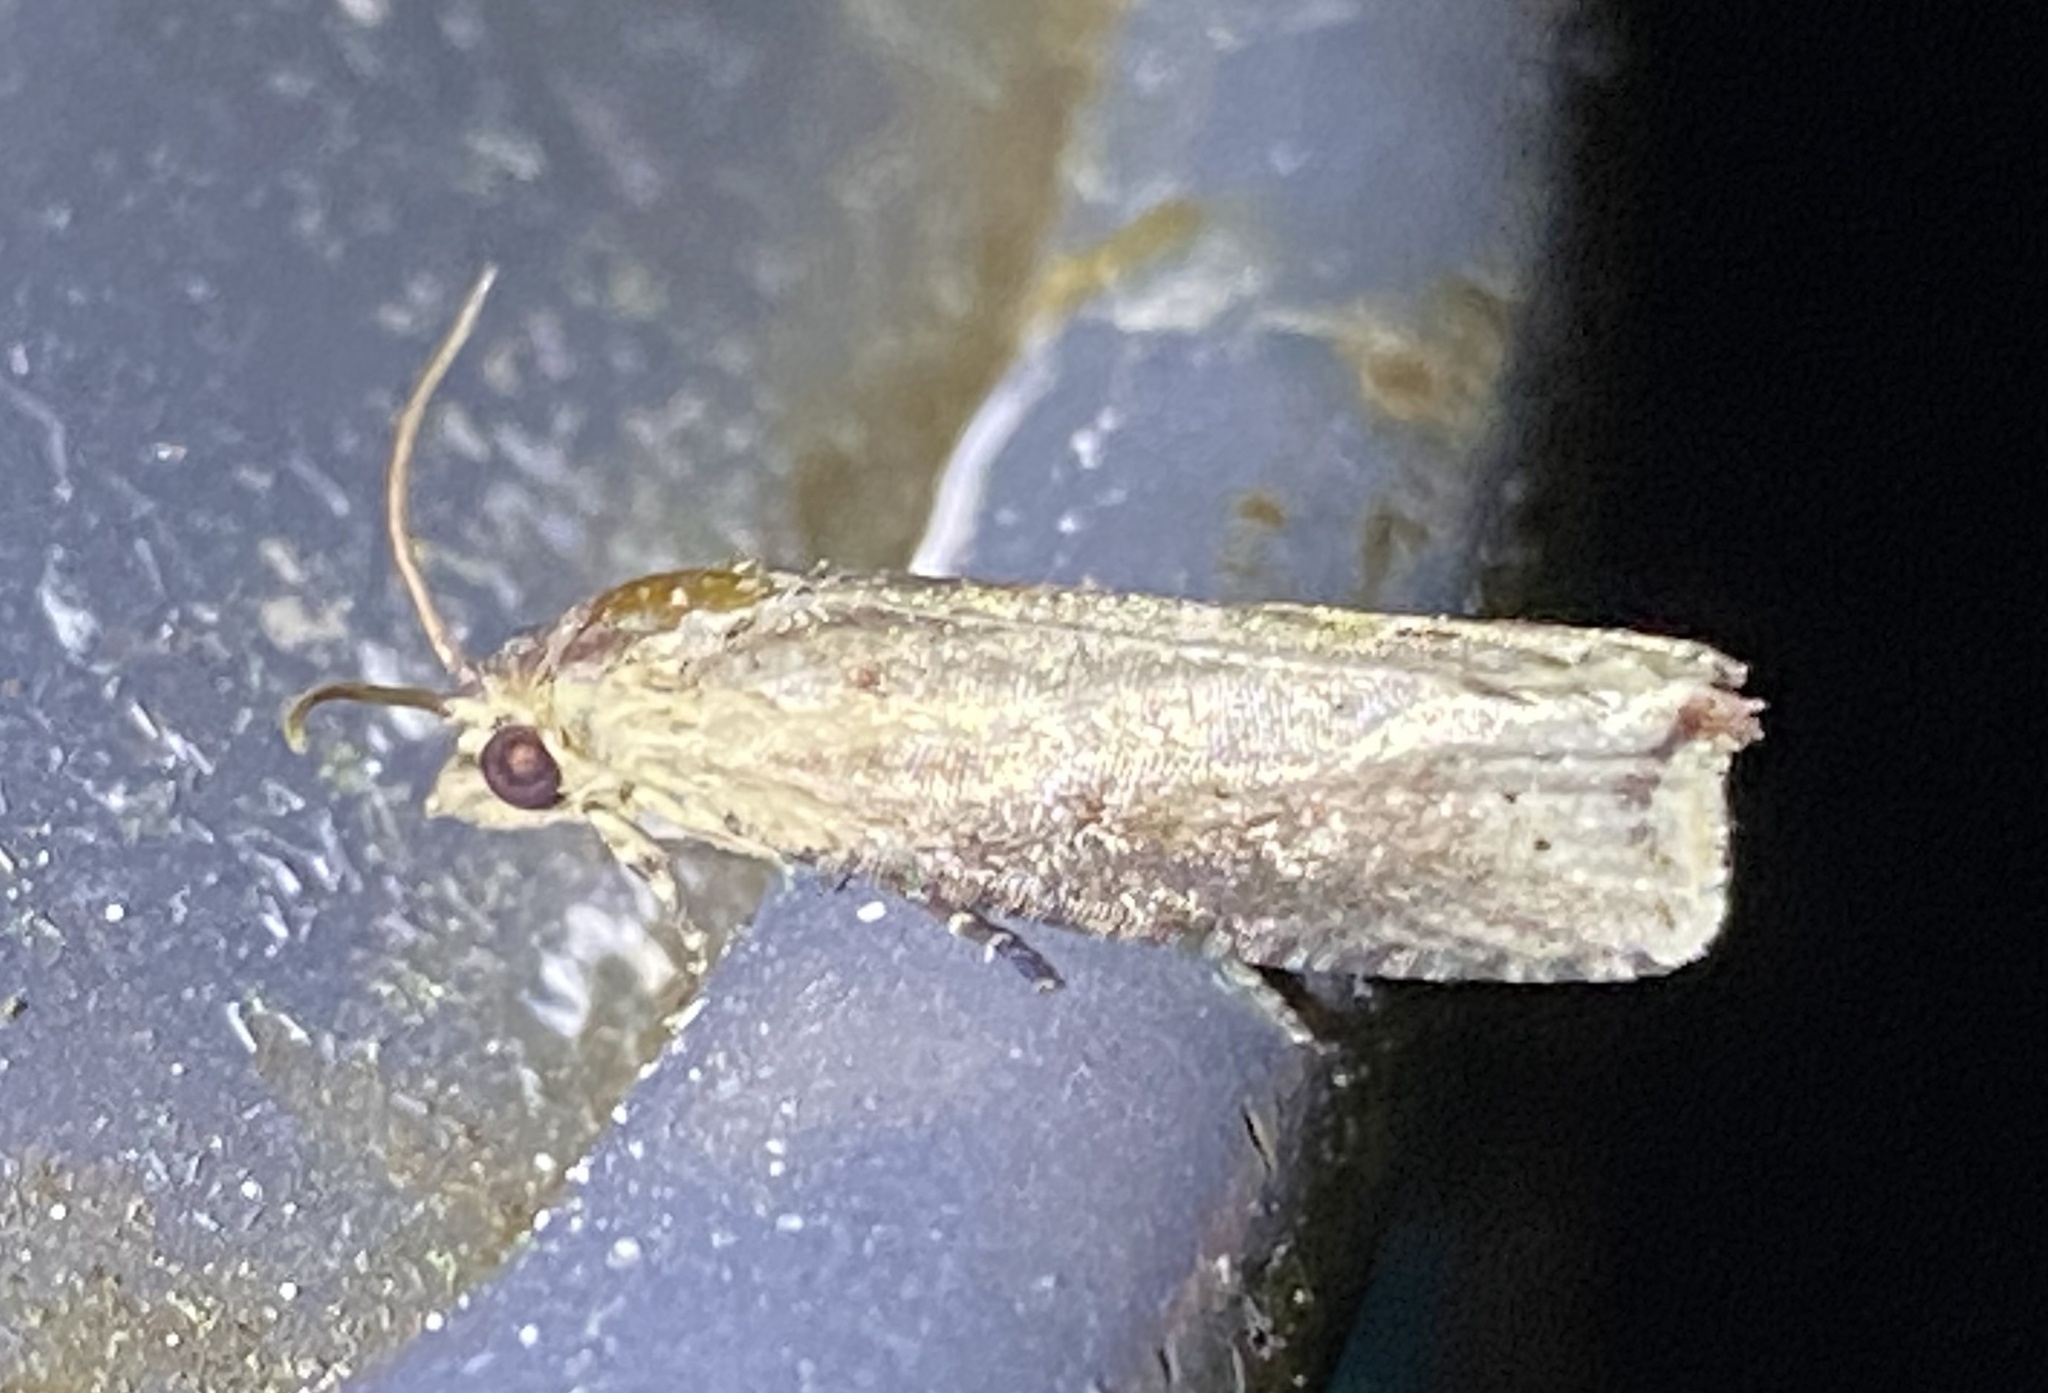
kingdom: Animalia
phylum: Arthropoda
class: Insecta
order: Lepidoptera
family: Tortricidae
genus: Pseudogalleria
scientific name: Pseudogalleria inimicella
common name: Inimical borer moth
